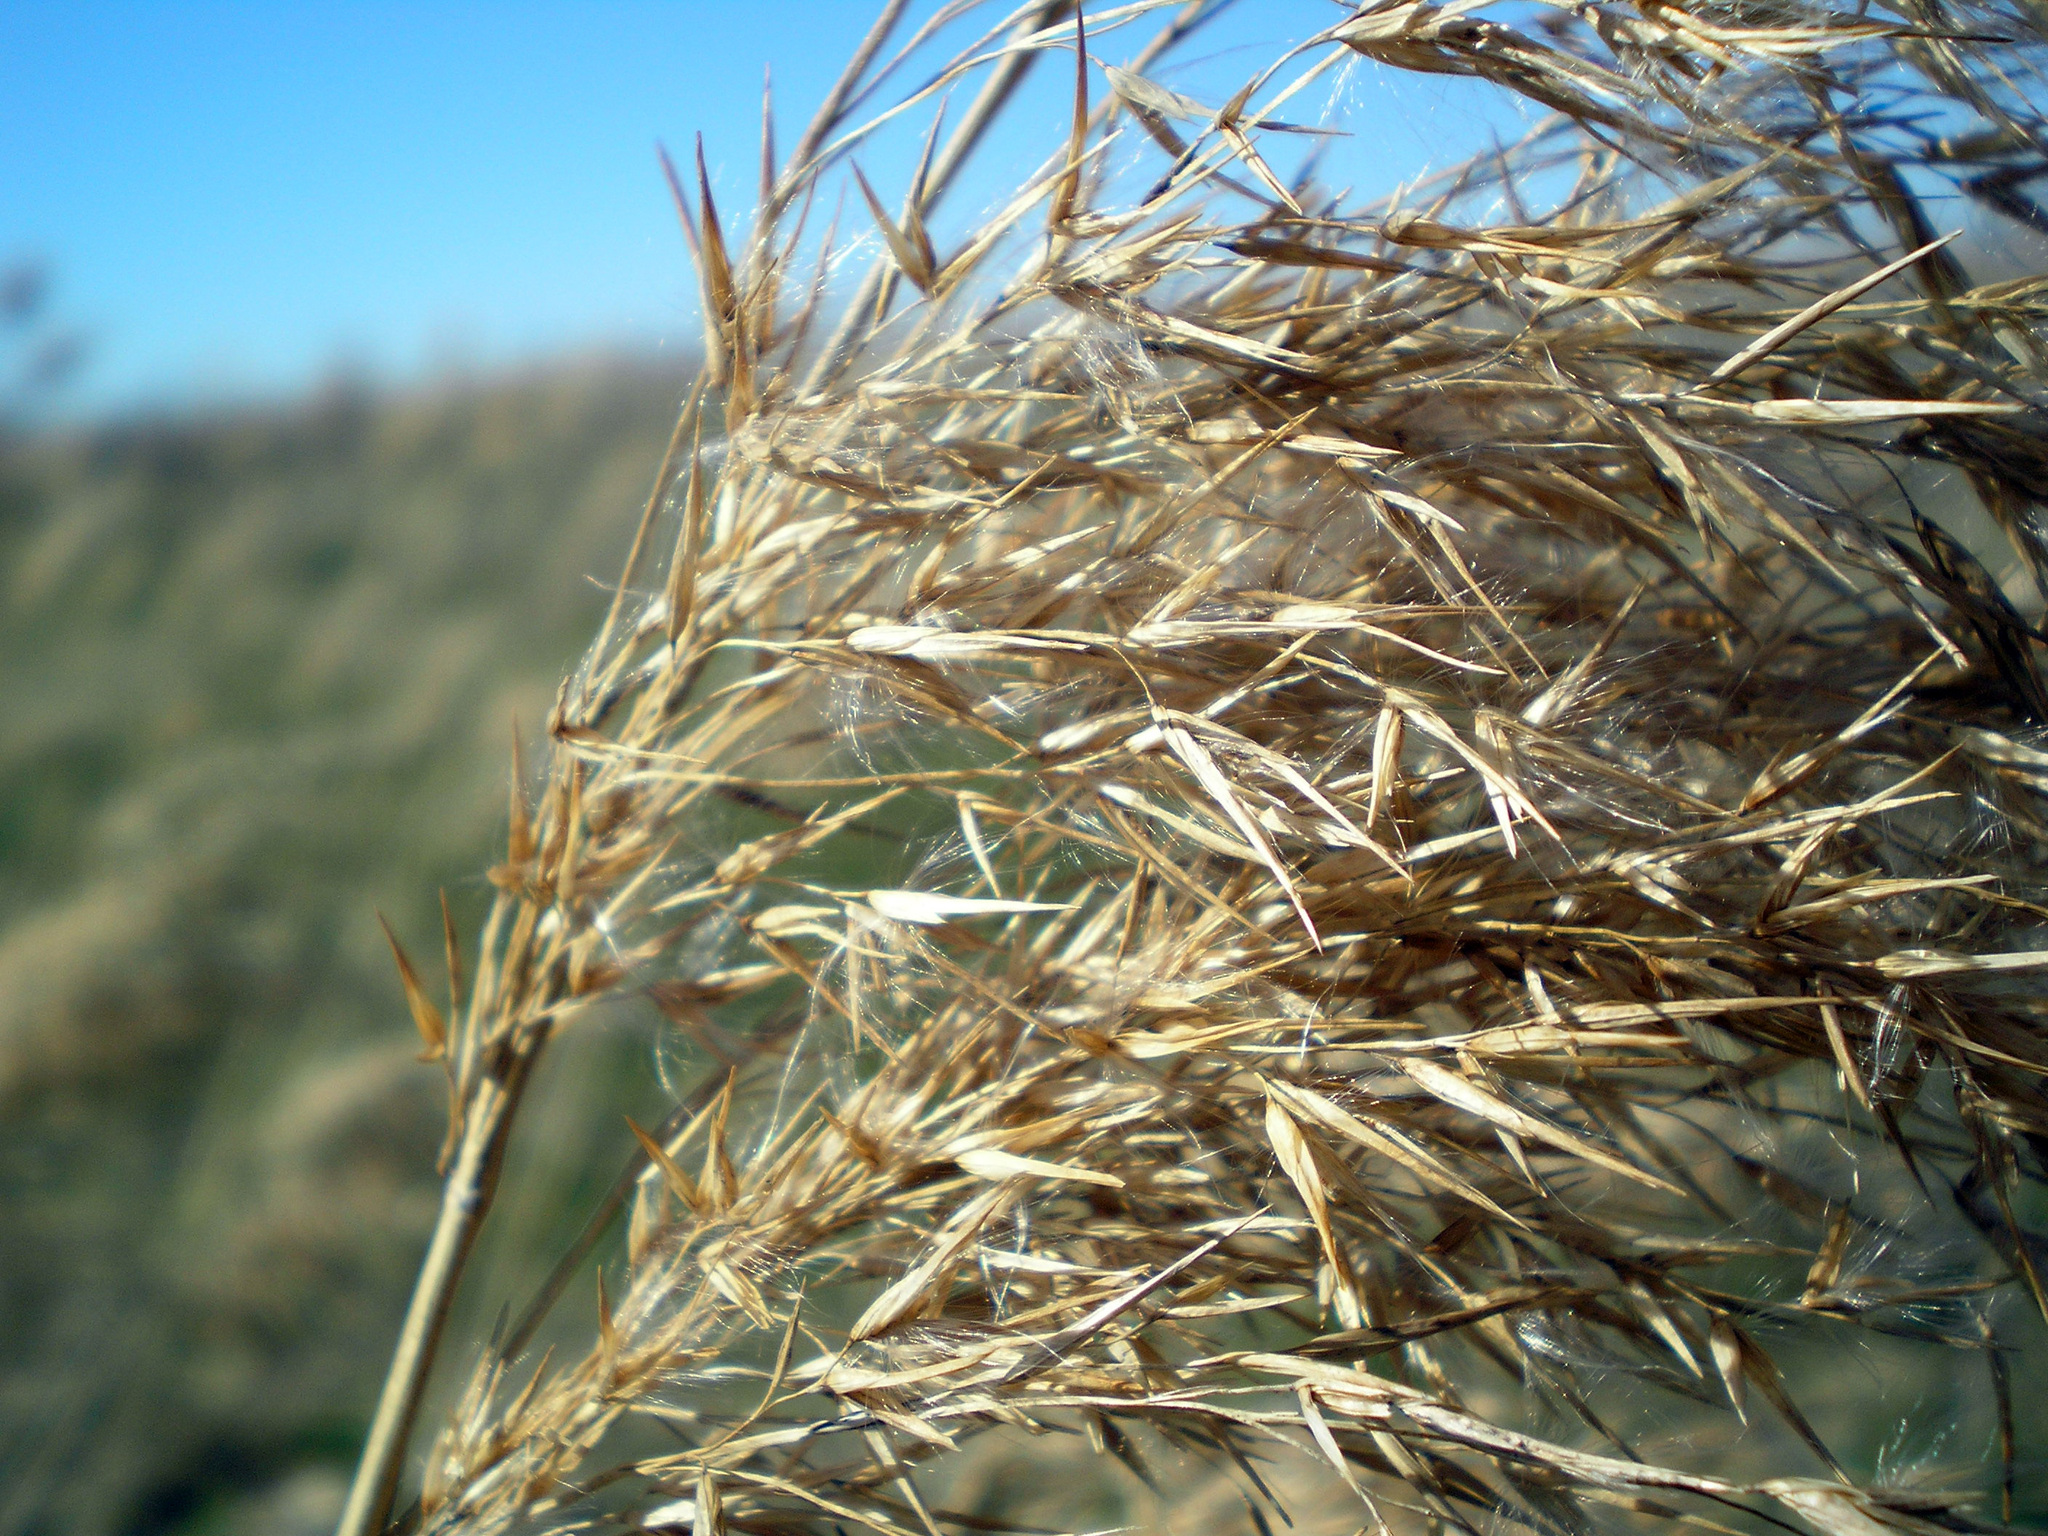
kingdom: Plantae
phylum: Tracheophyta
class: Liliopsida
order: Poales
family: Poaceae
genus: Phragmites
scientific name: Phragmites australis
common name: Common reed
